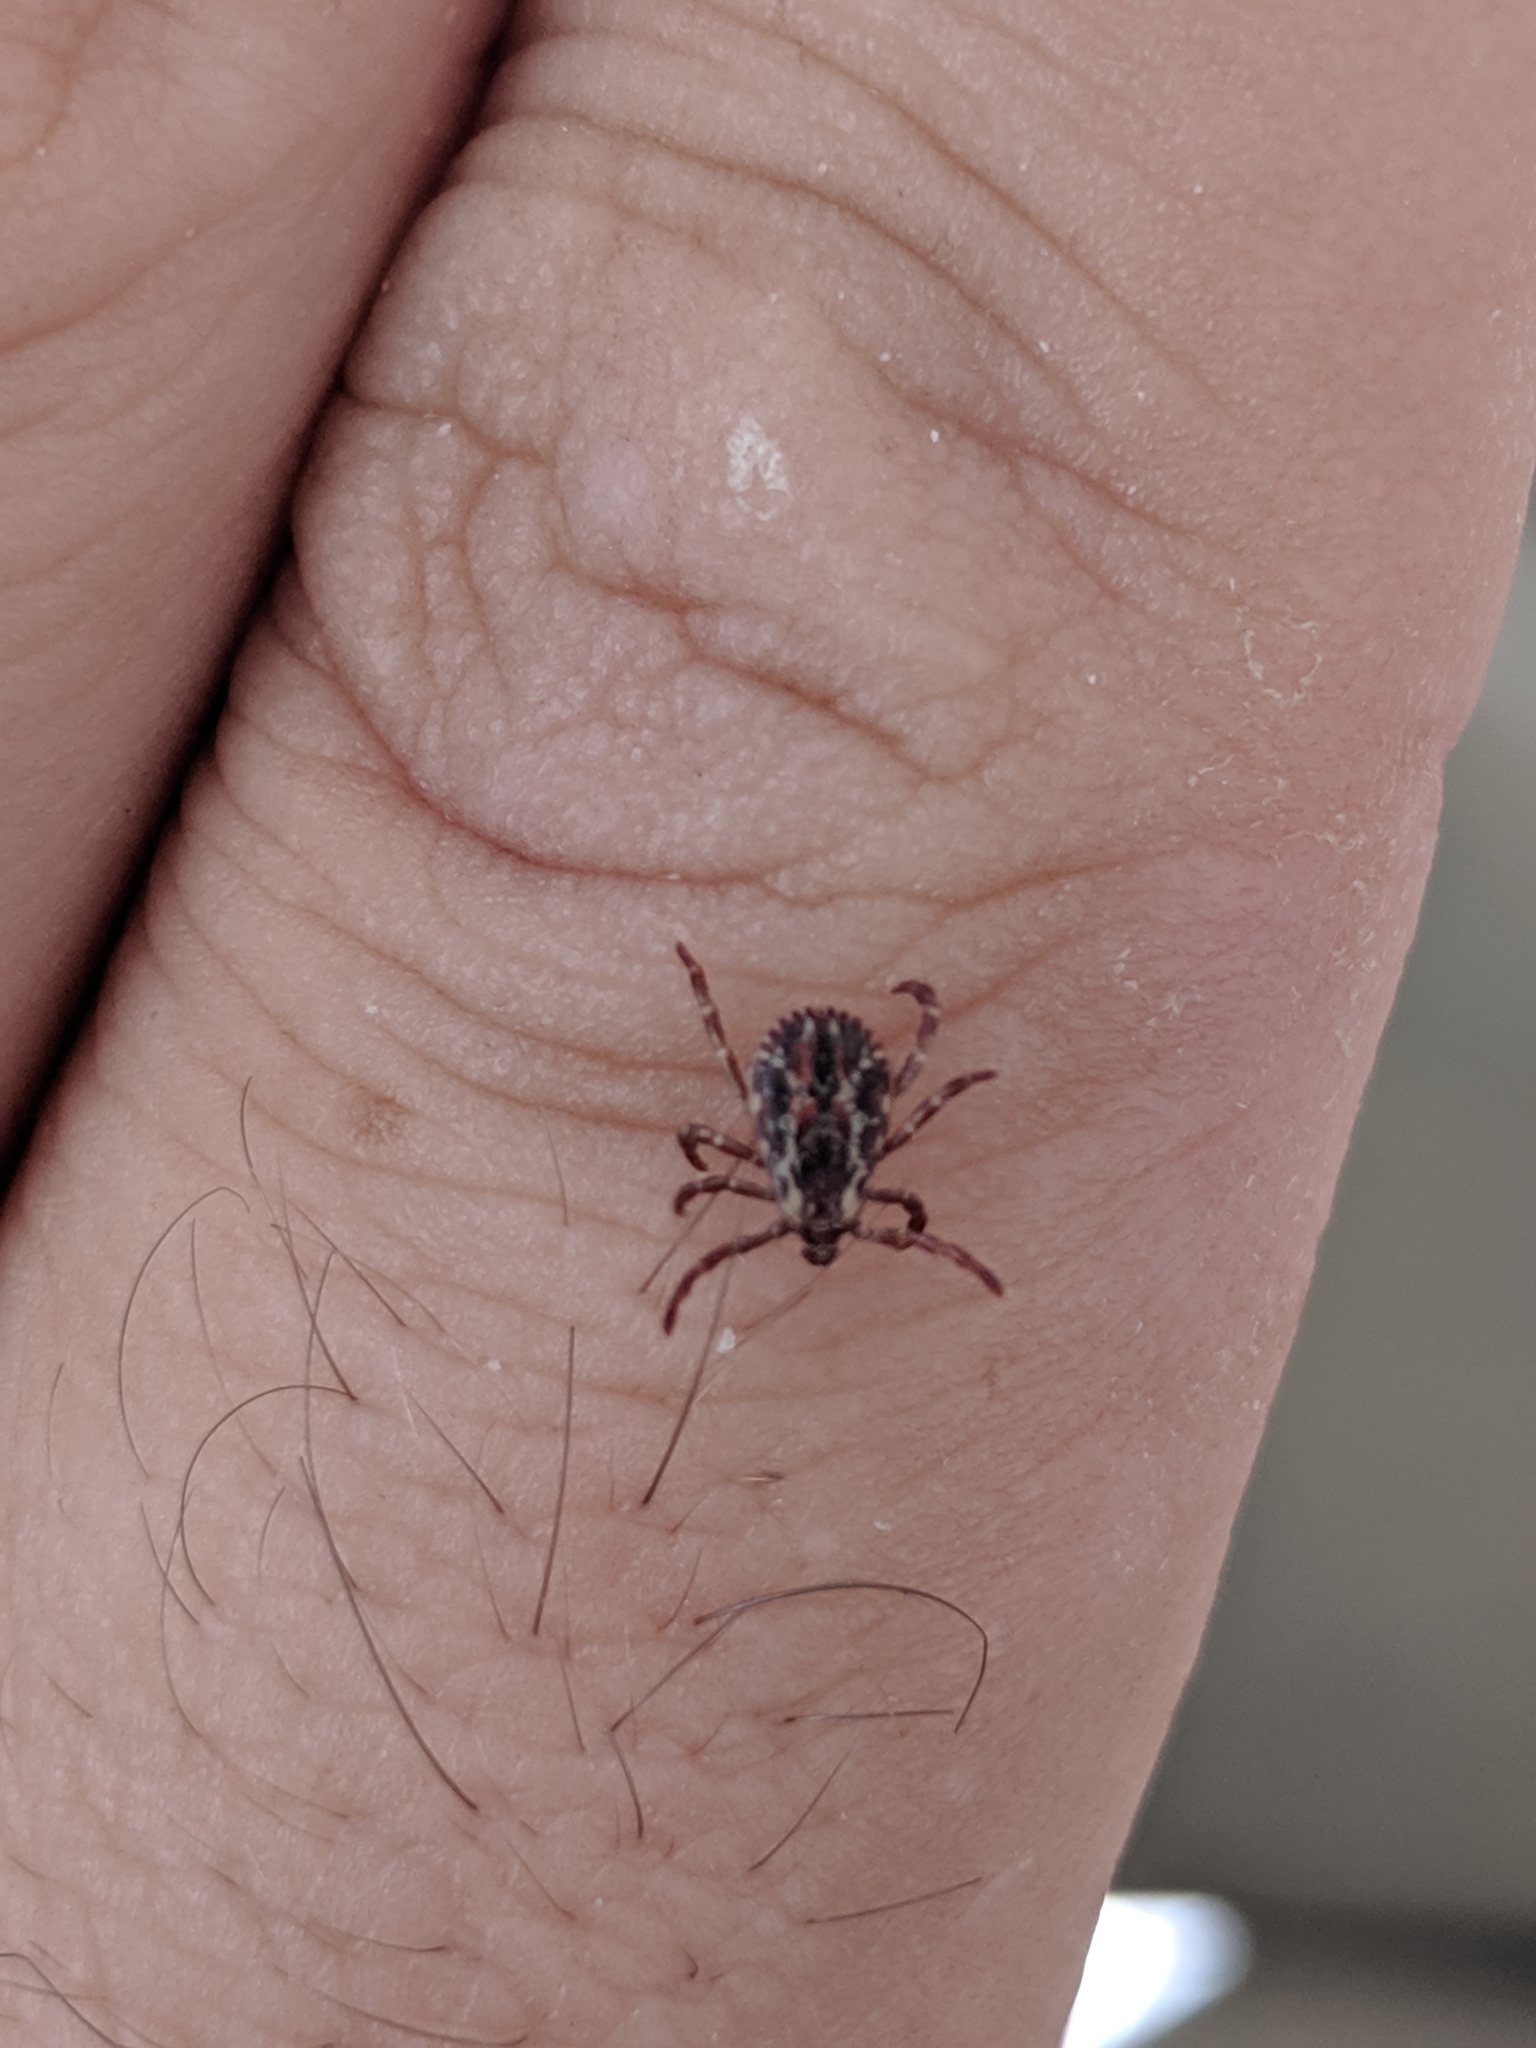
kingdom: Animalia
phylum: Arthropoda
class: Arachnida
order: Ixodida
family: Ixodidae
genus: Dermacentor
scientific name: Dermacentor variabilis
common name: American dog tick
